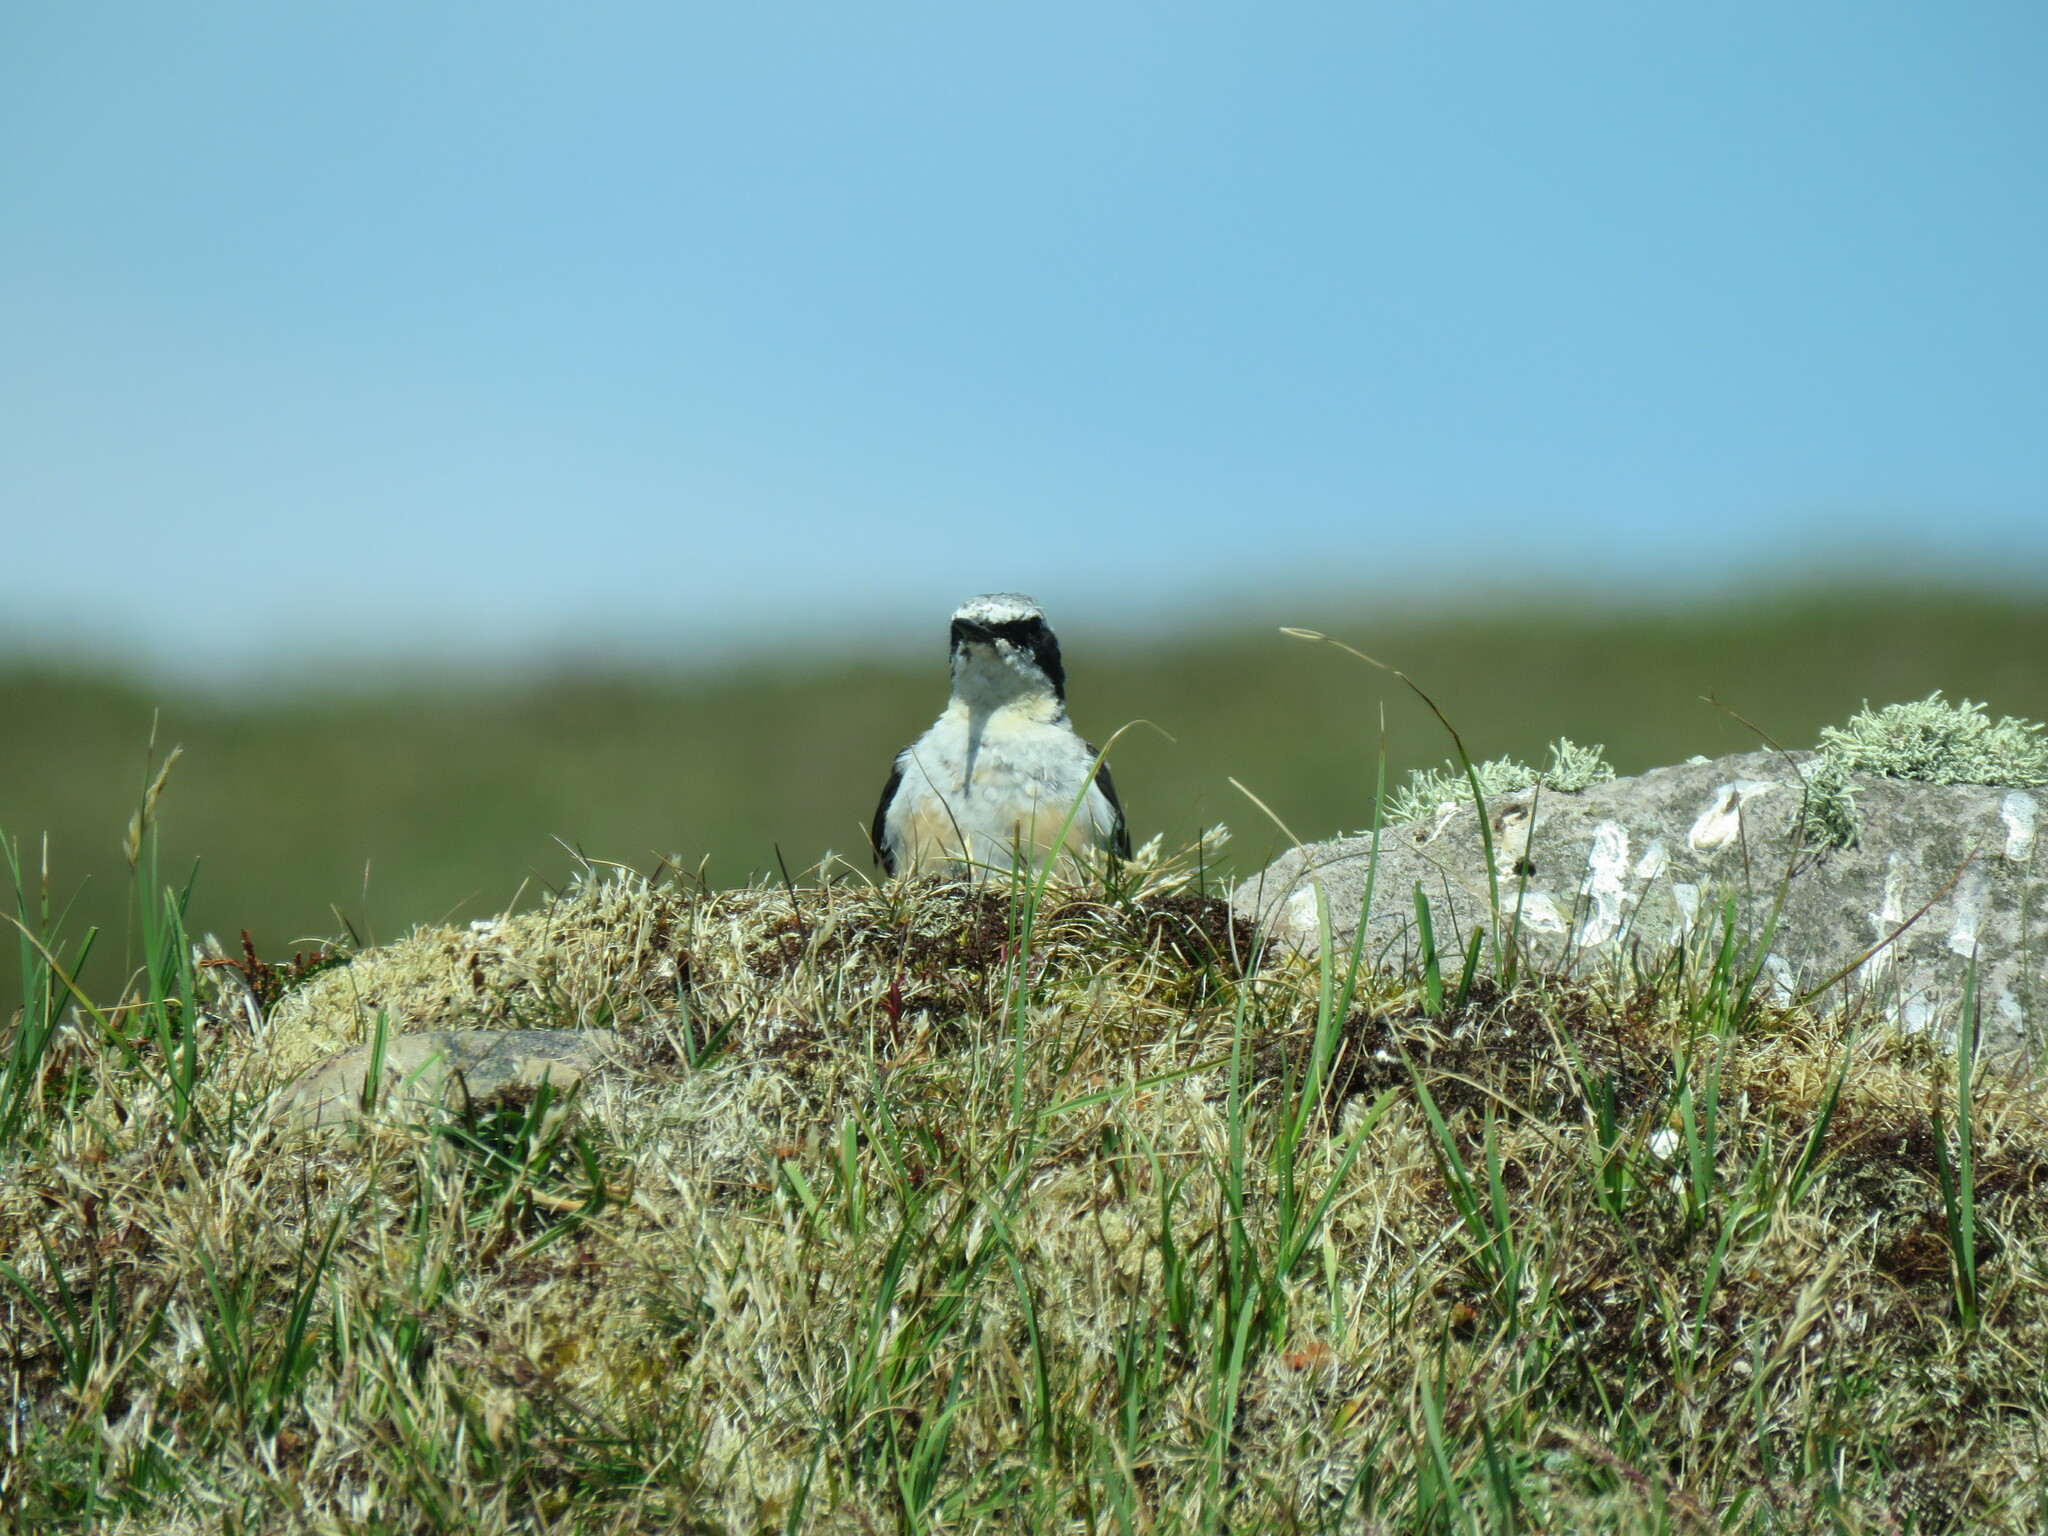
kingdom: Animalia
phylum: Chordata
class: Aves
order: Passeriformes
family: Muscicapidae
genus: Oenanthe
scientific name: Oenanthe oenanthe
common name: Northern wheatear
